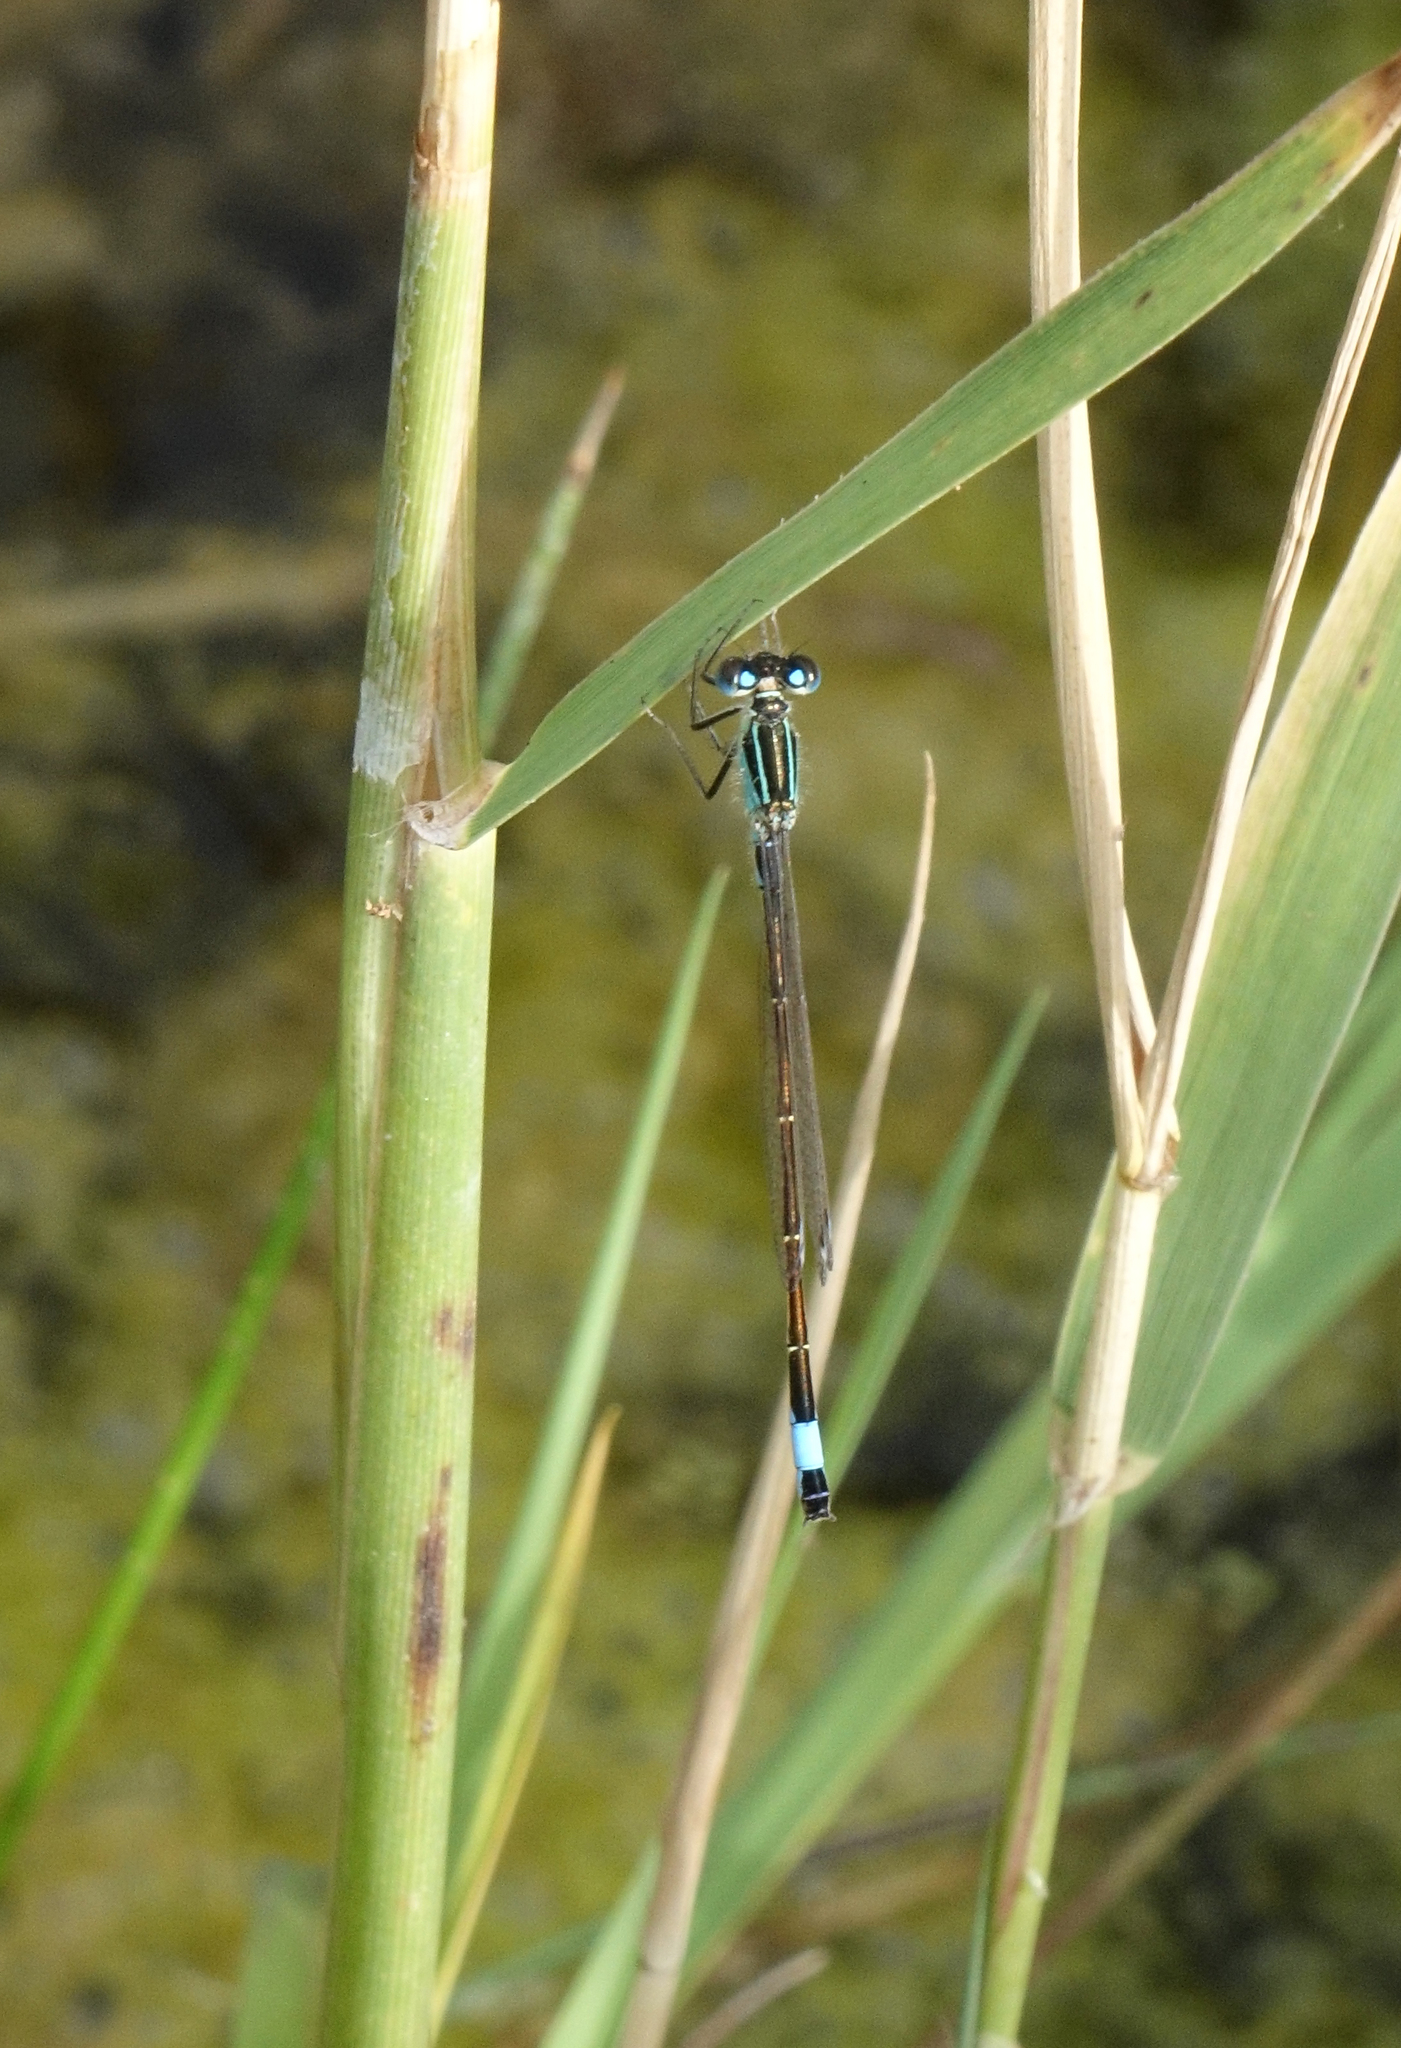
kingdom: Animalia
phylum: Arthropoda
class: Insecta
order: Odonata
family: Coenagrionidae
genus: Ischnura
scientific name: Ischnura elegans
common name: Blue-tailed damselfly
